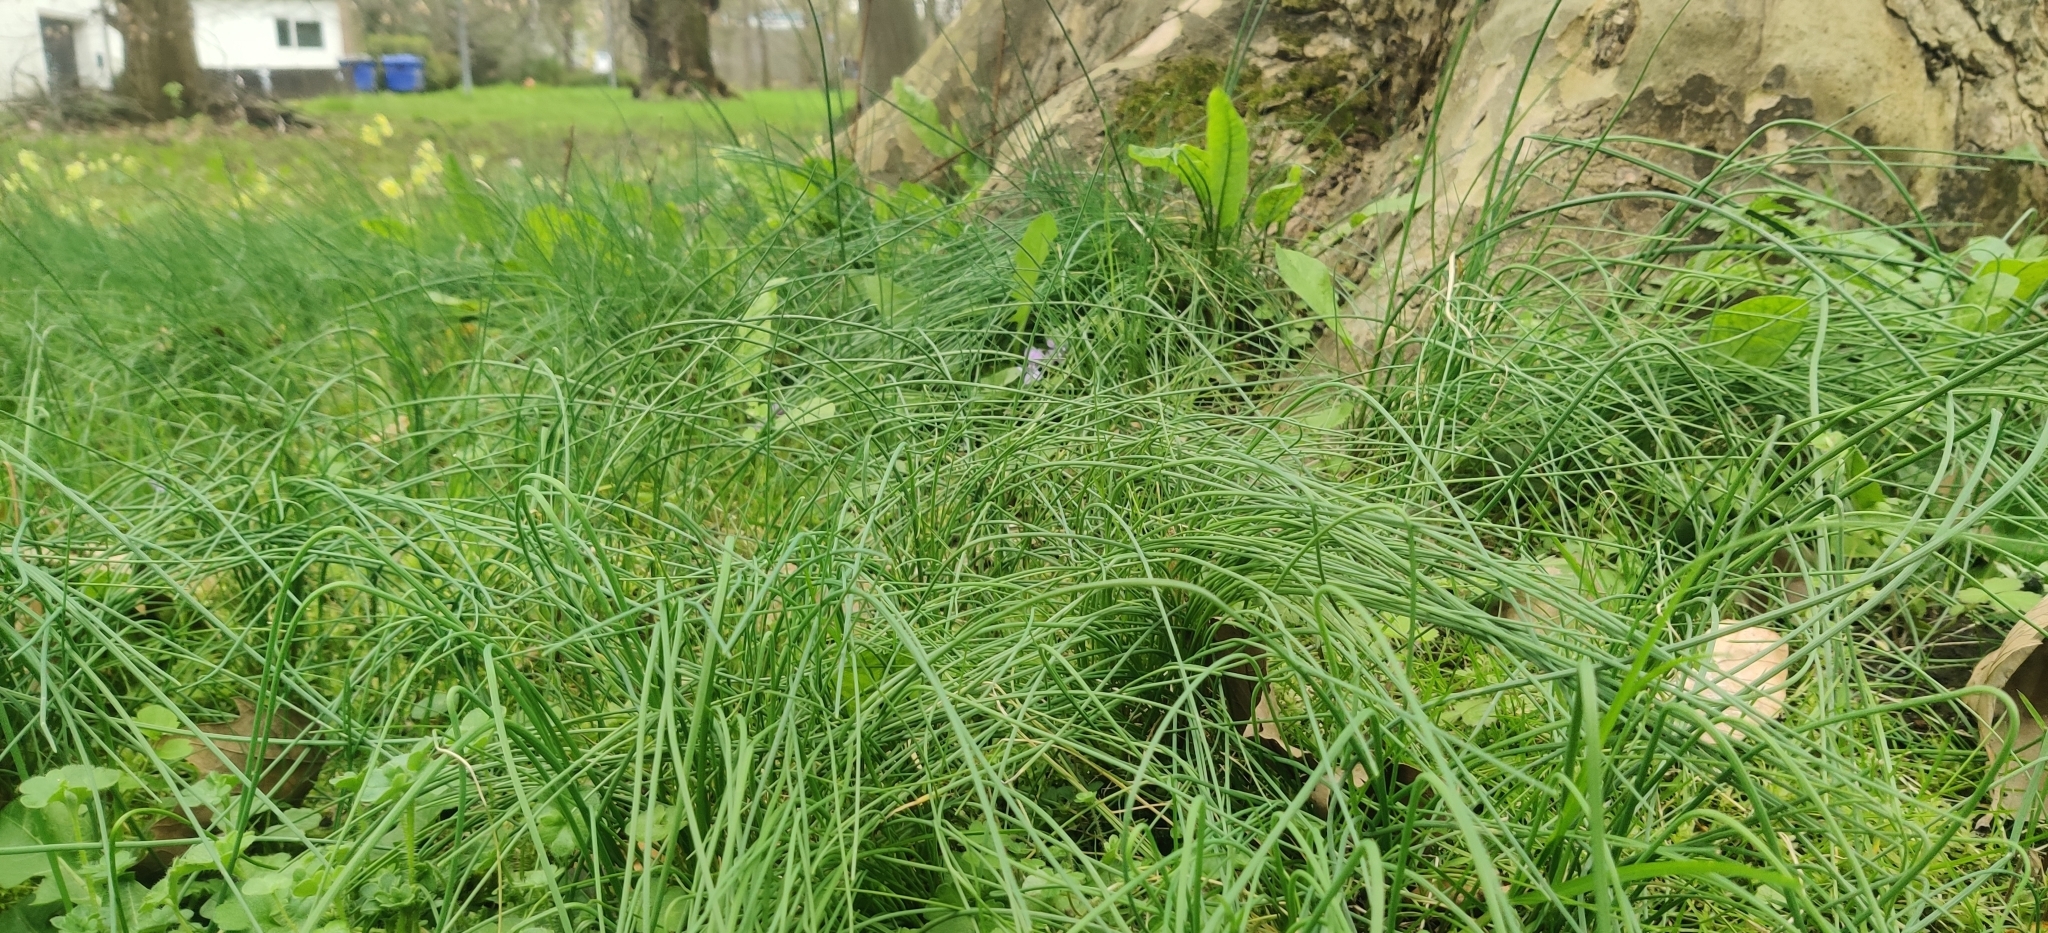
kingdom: Plantae
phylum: Tracheophyta
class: Liliopsida
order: Asparagales
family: Amaryllidaceae
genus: Allium
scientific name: Allium vineale
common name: Crow garlic
